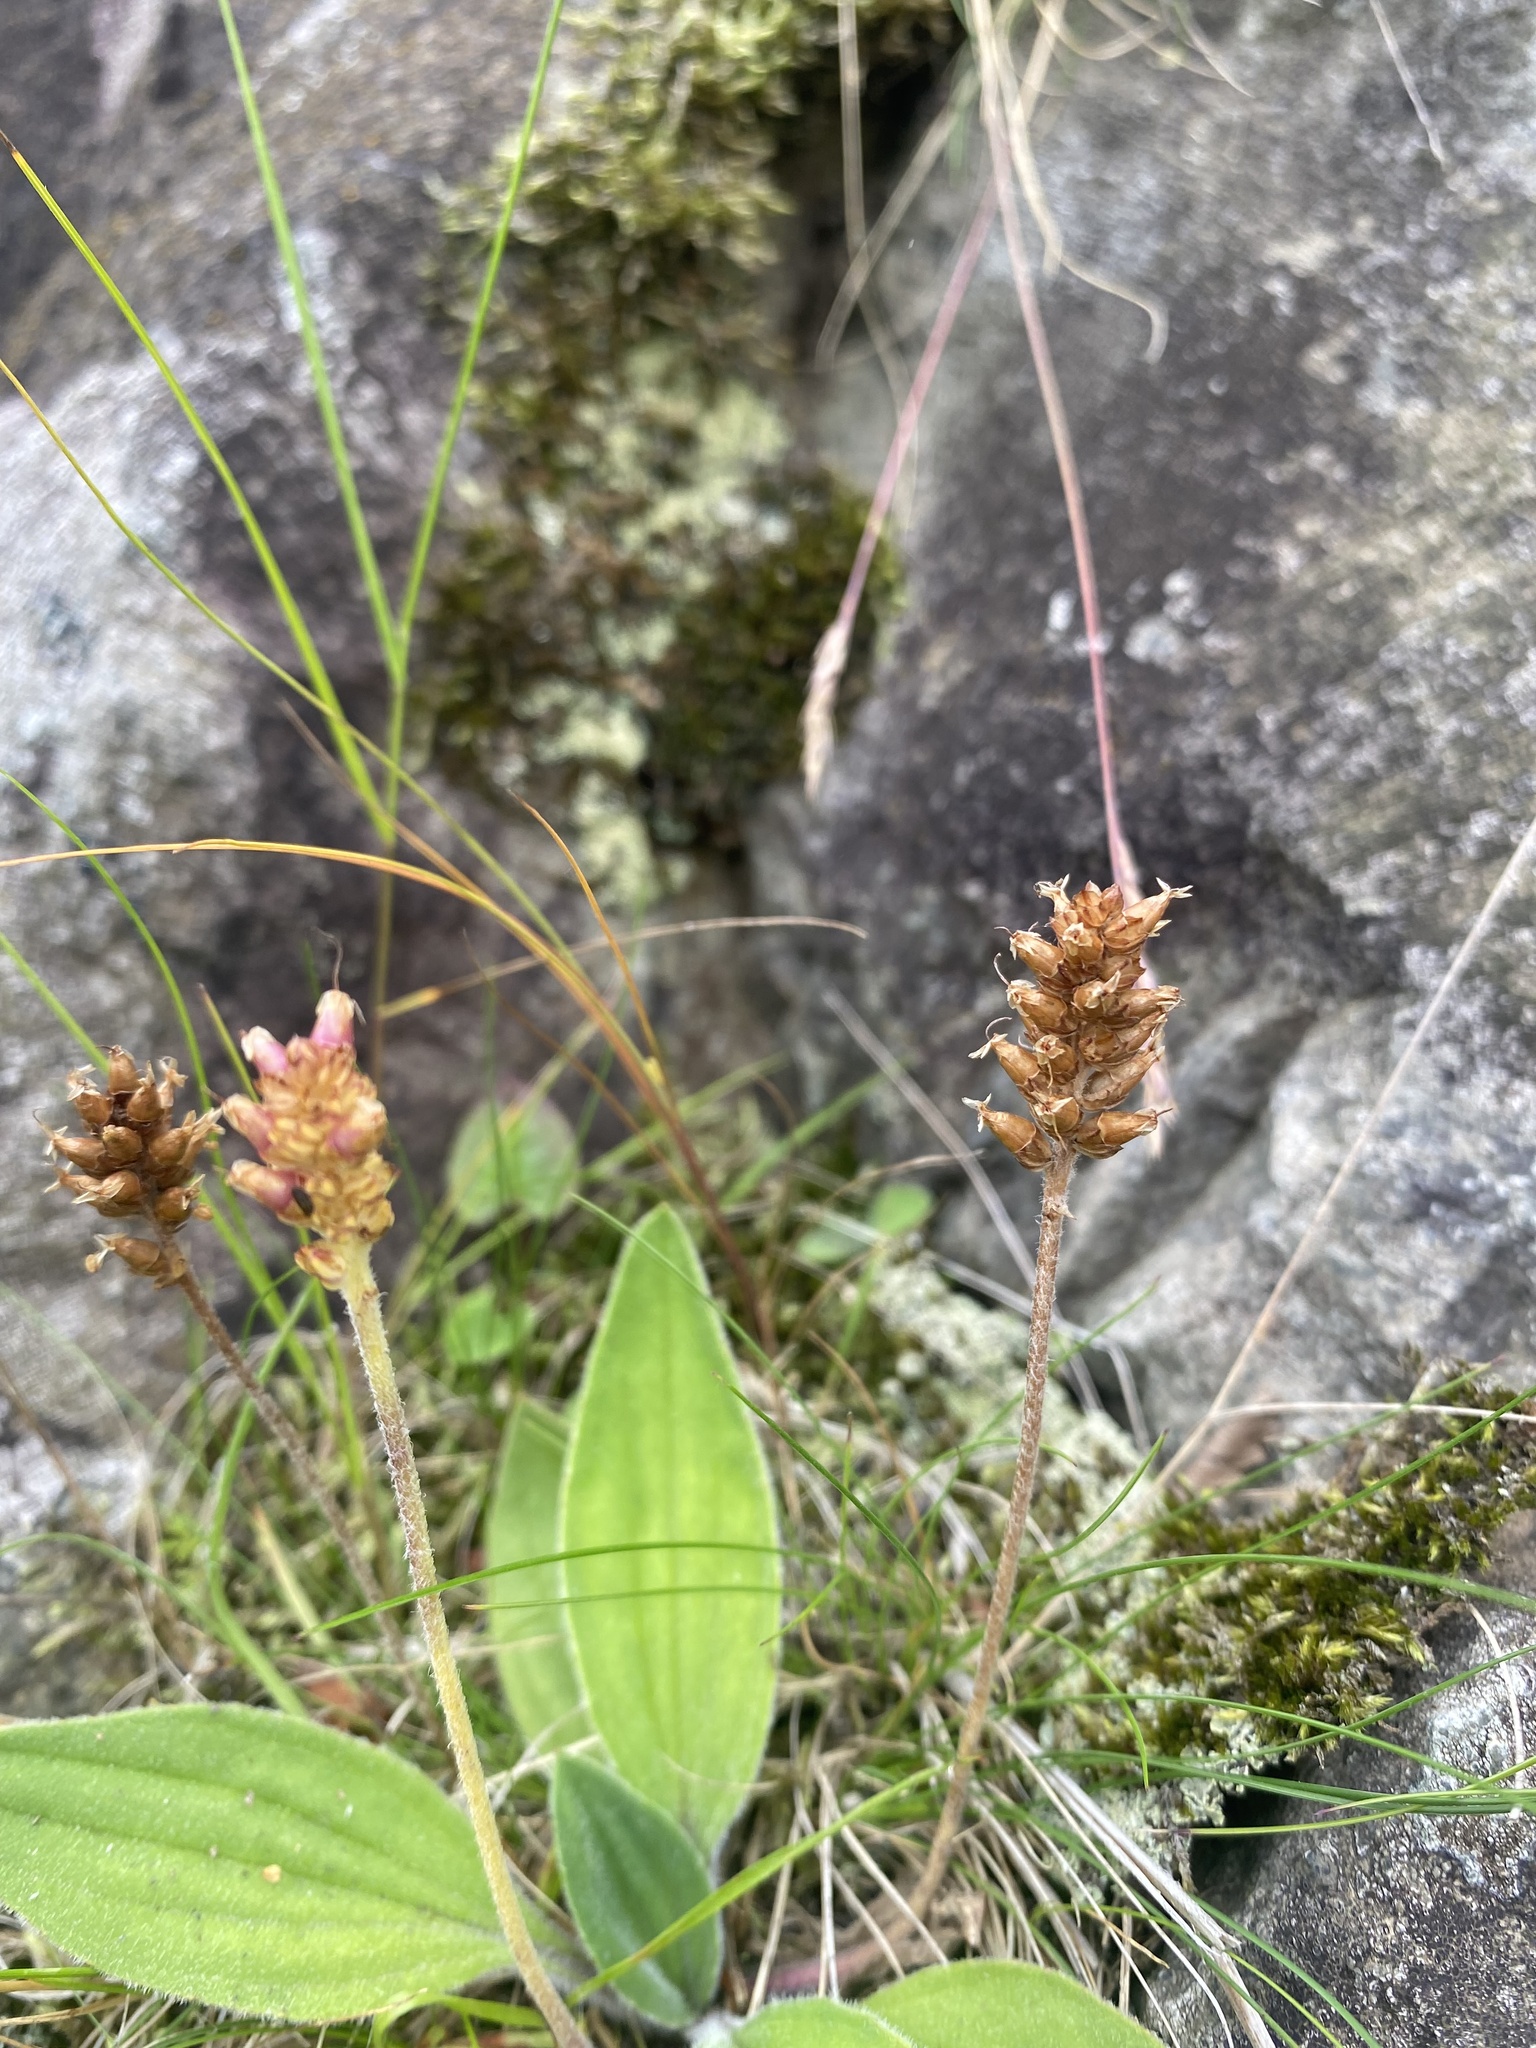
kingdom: Plantae
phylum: Tracheophyta
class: Magnoliopsida
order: Lamiales
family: Plantaginaceae
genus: Plantago
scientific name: Plantago camtschatica
